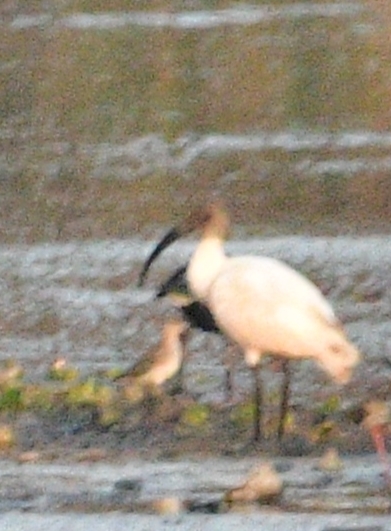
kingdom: Animalia
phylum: Chordata
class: Aves
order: Pelecaniformes
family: Threskiornithidae
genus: Threskiornis
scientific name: Threskiornis melanocephalus
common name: Black-headed ibis
